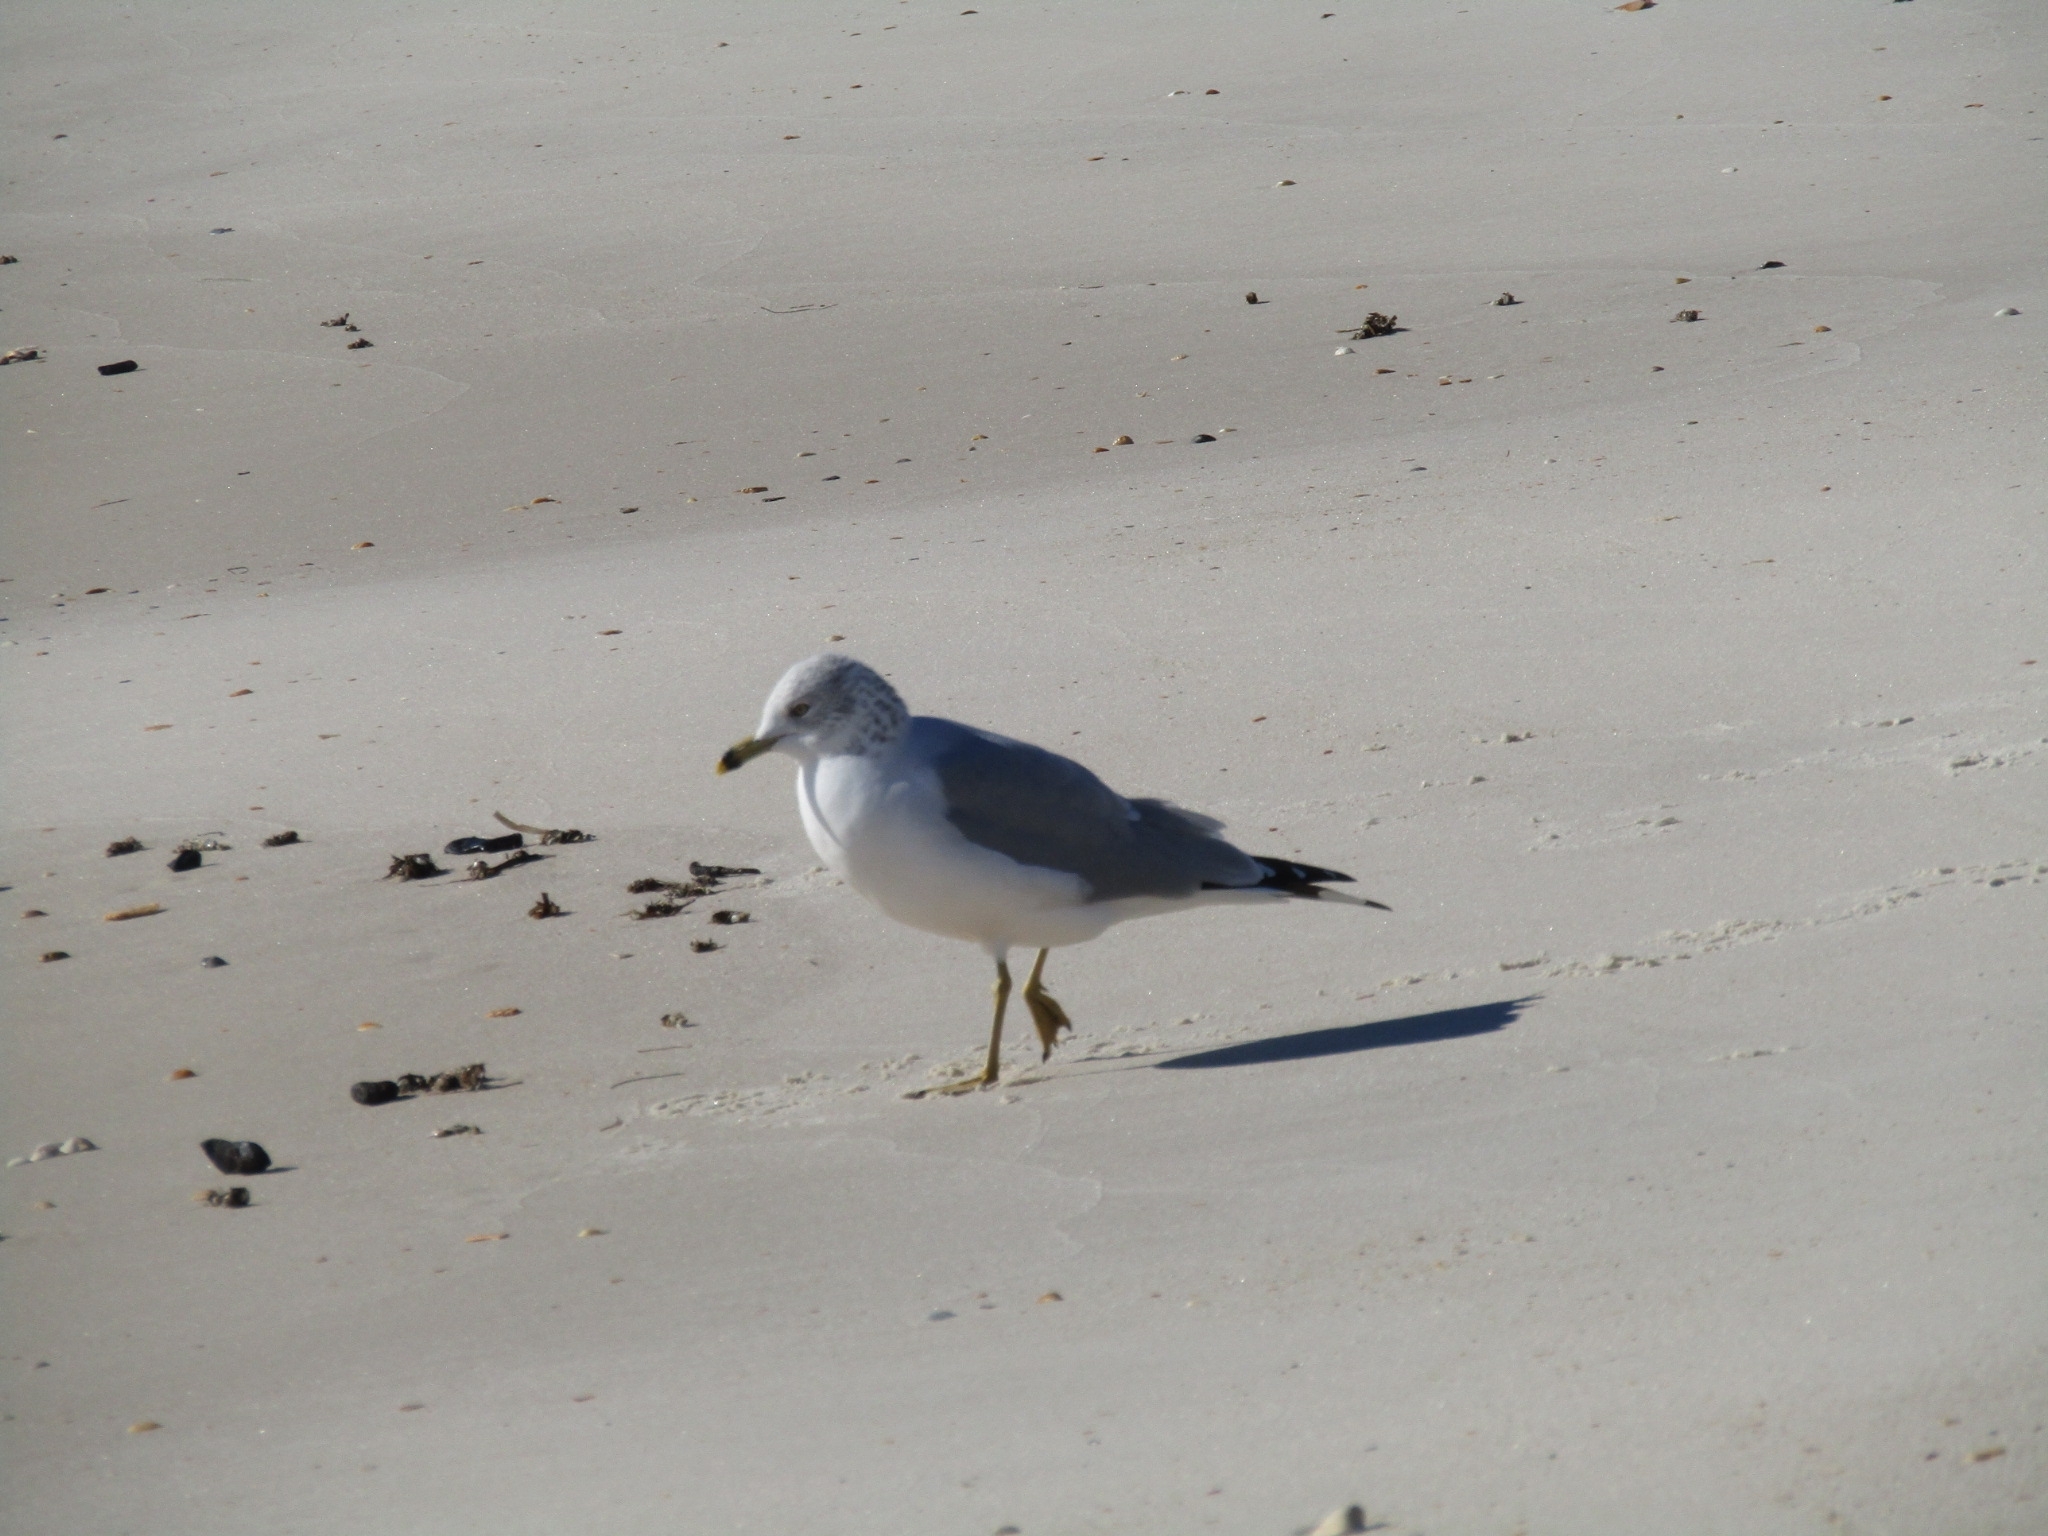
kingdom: Animalia
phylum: Chordata
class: Aves
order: Charadriiformes
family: Laridae
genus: Larus
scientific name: Larus delawarensis
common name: Ring-billed gull
